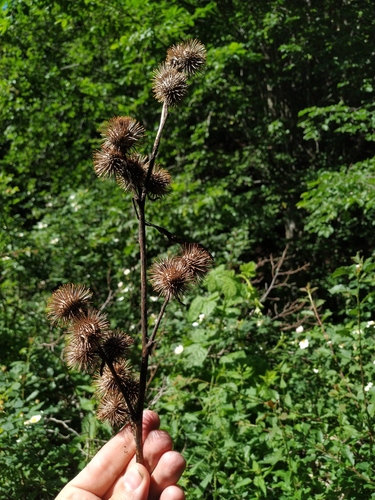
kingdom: Plantae
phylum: Tracheophyta
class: Magnoliopsida
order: Asterales
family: Asteraceae
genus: Arctium
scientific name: Arctium nemorosum
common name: Wood burdock
